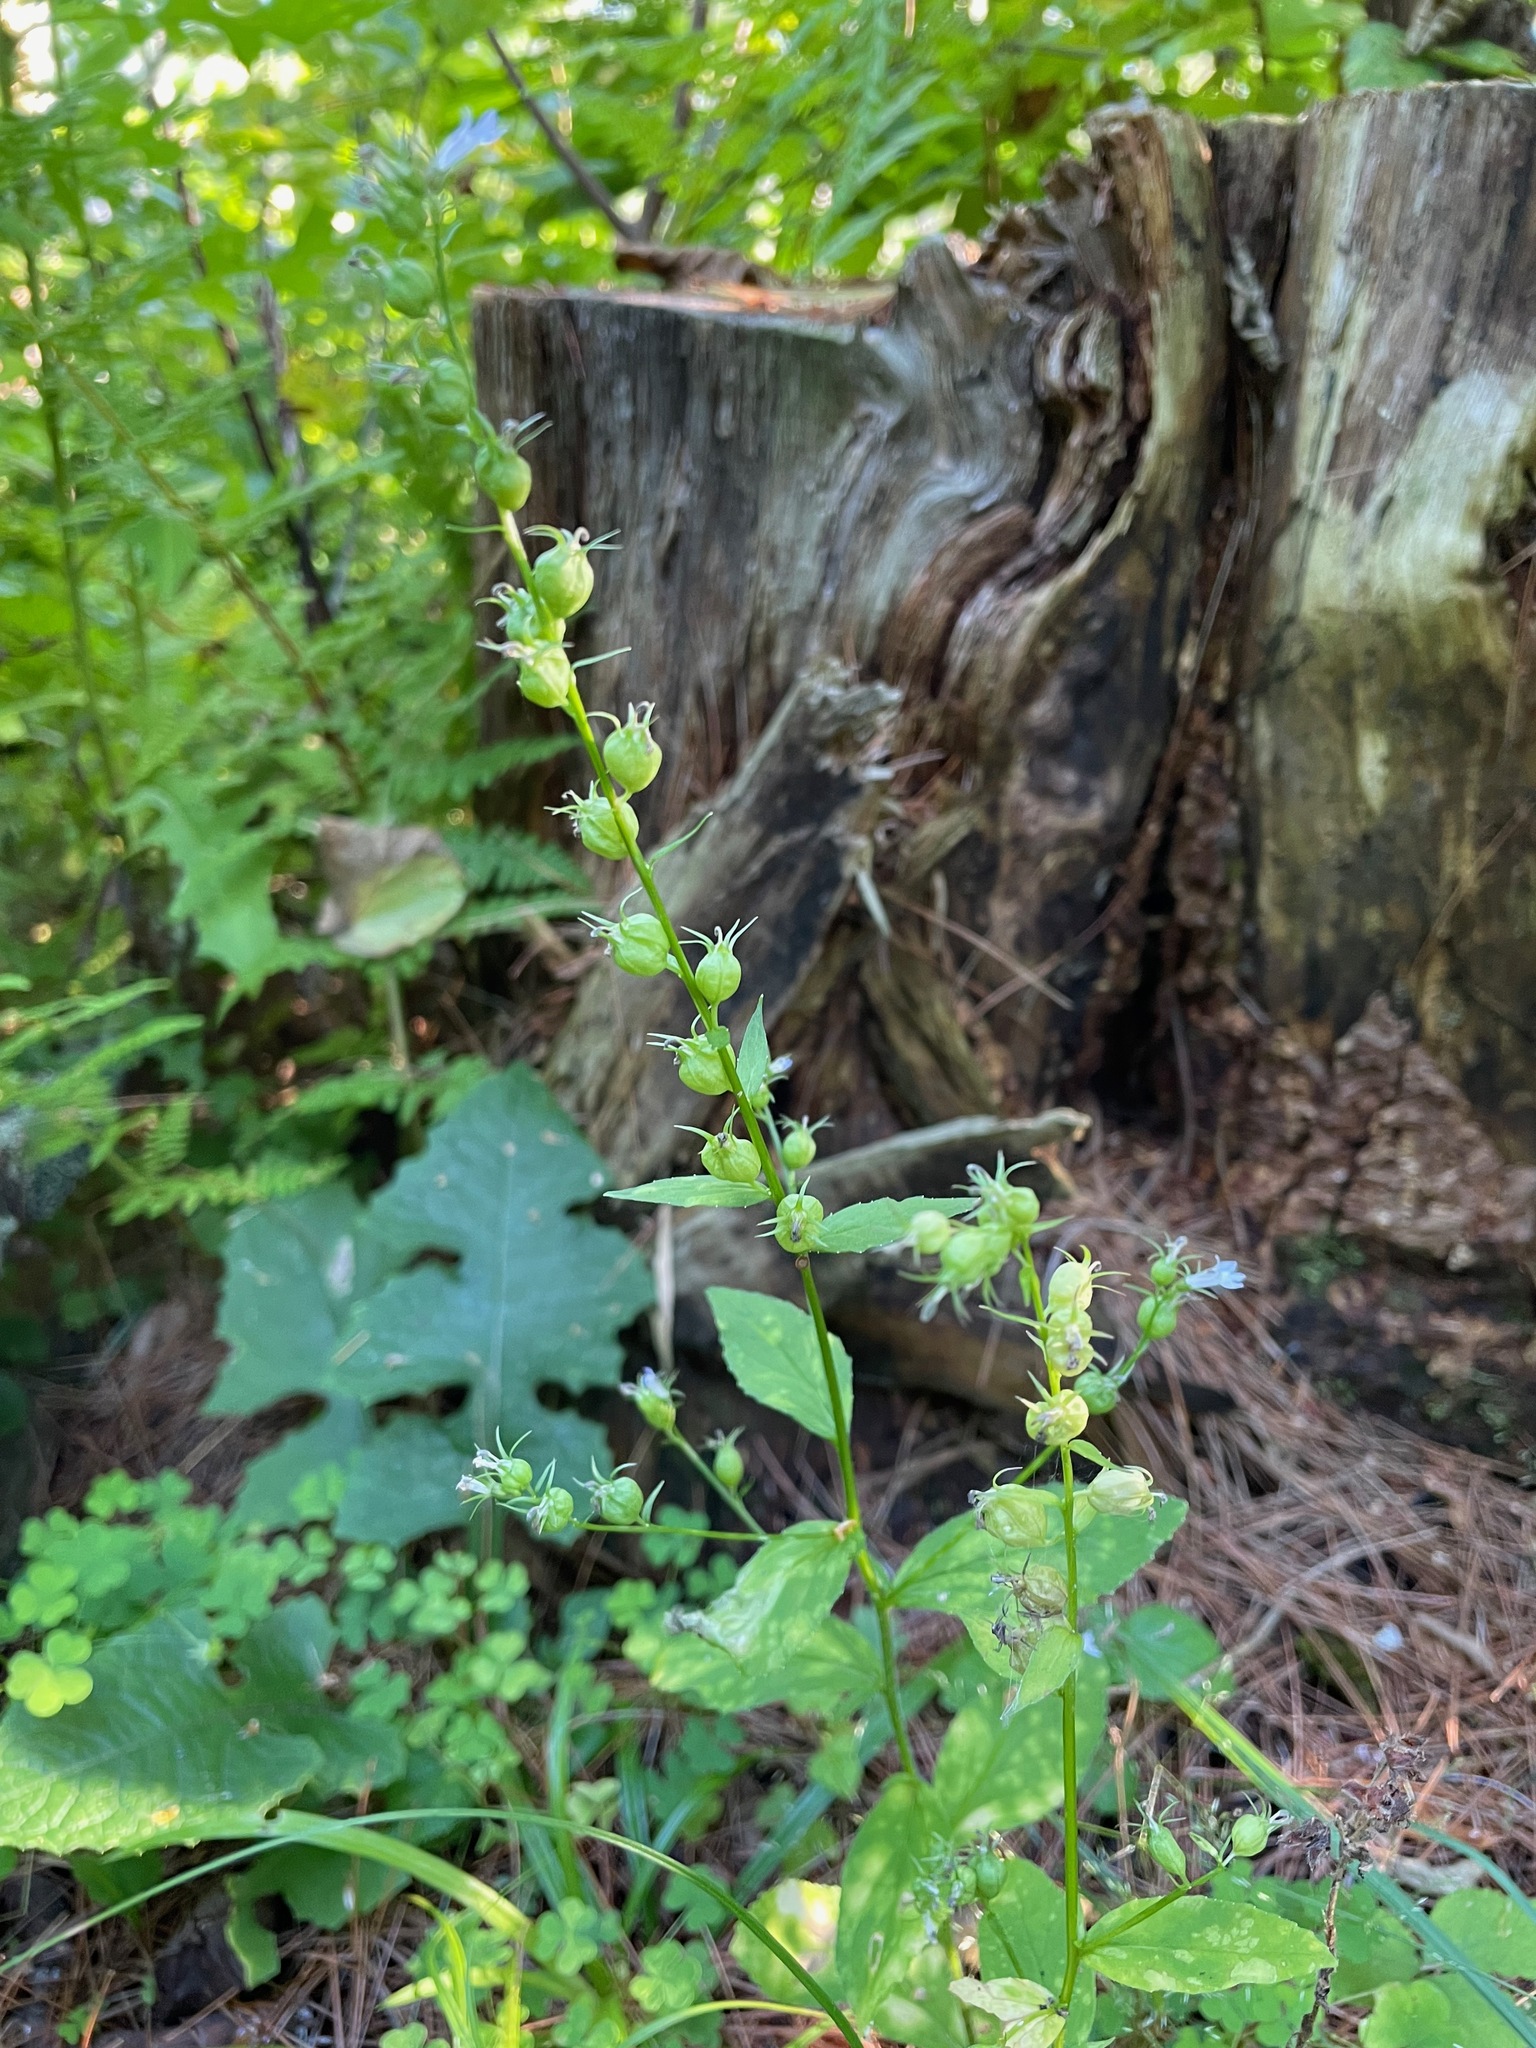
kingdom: Plantae
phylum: Tracheophyta
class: Magnoliopsida
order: Asterales
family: Campanulaceae
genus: Lobelia
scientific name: Lobelia inflata
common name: Indian tobacco
